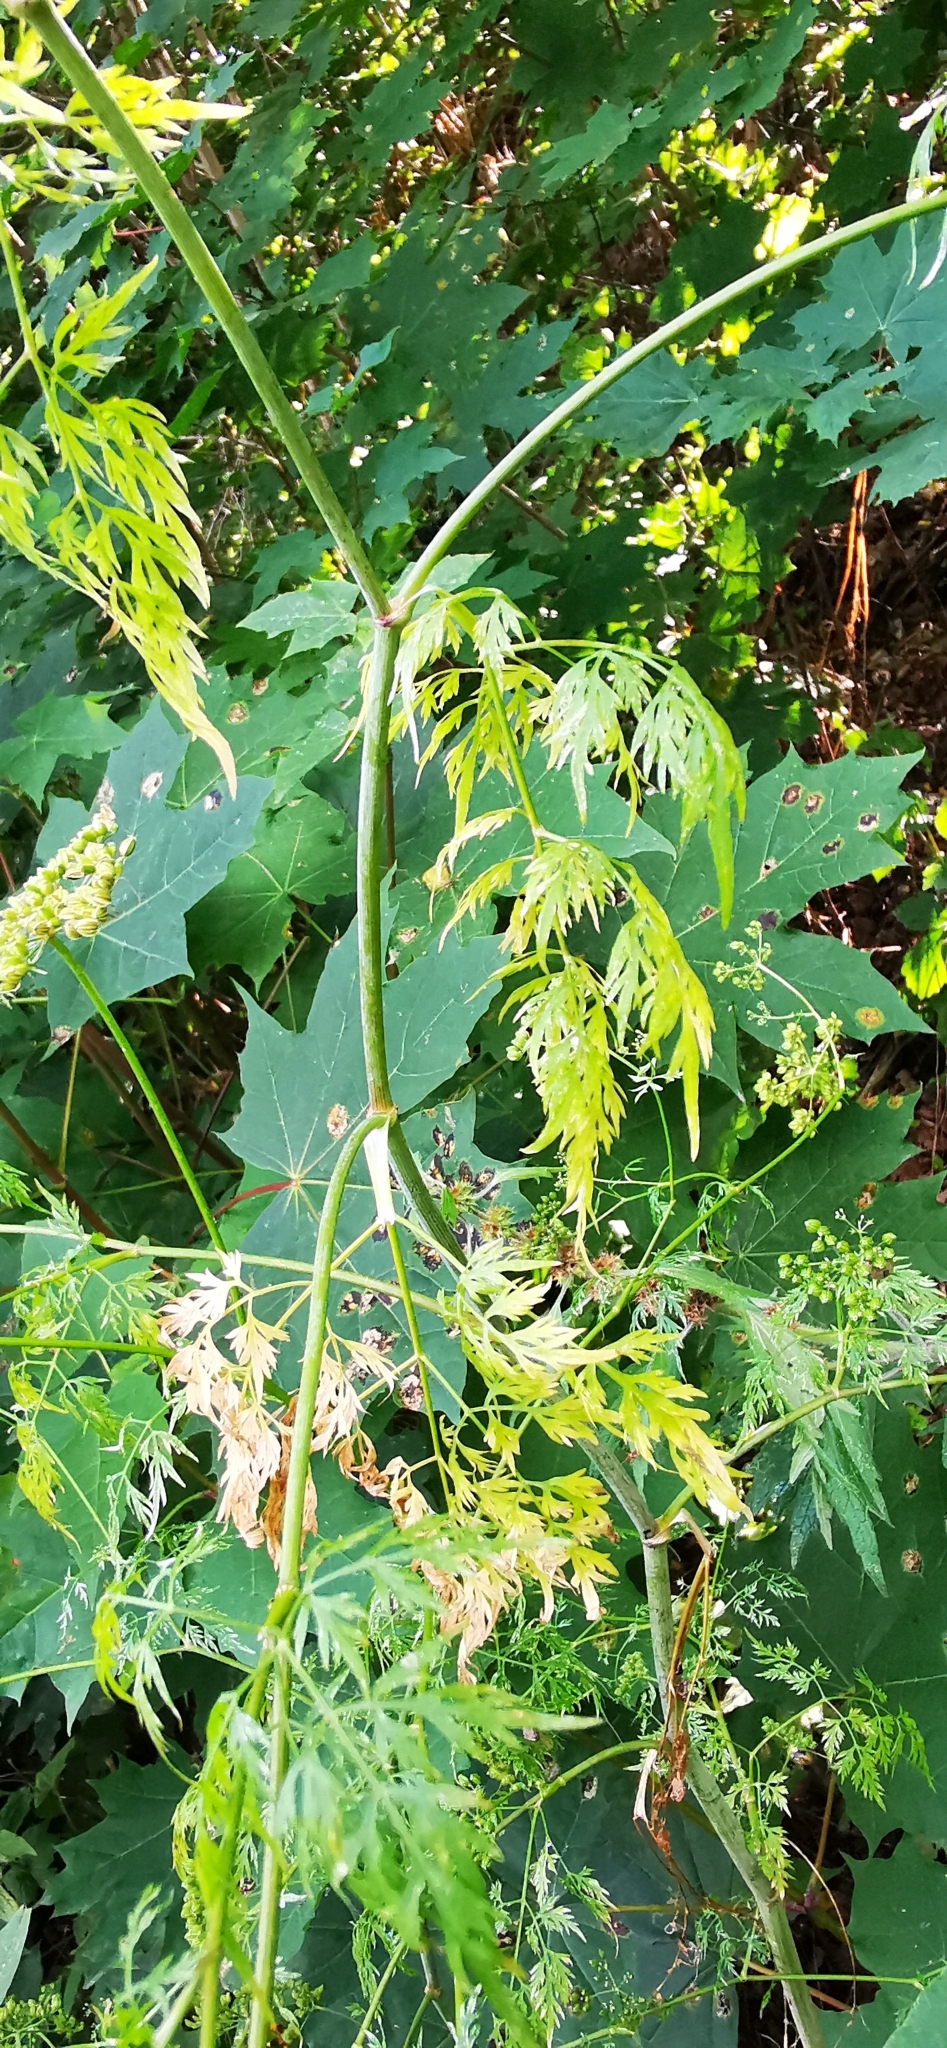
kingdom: Plantae
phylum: Tracheophyta
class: Magnoliopsida
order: Apiales
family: Apiaceae
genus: Aethusa
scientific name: Aethusa cynapium
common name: Fool's parsley
